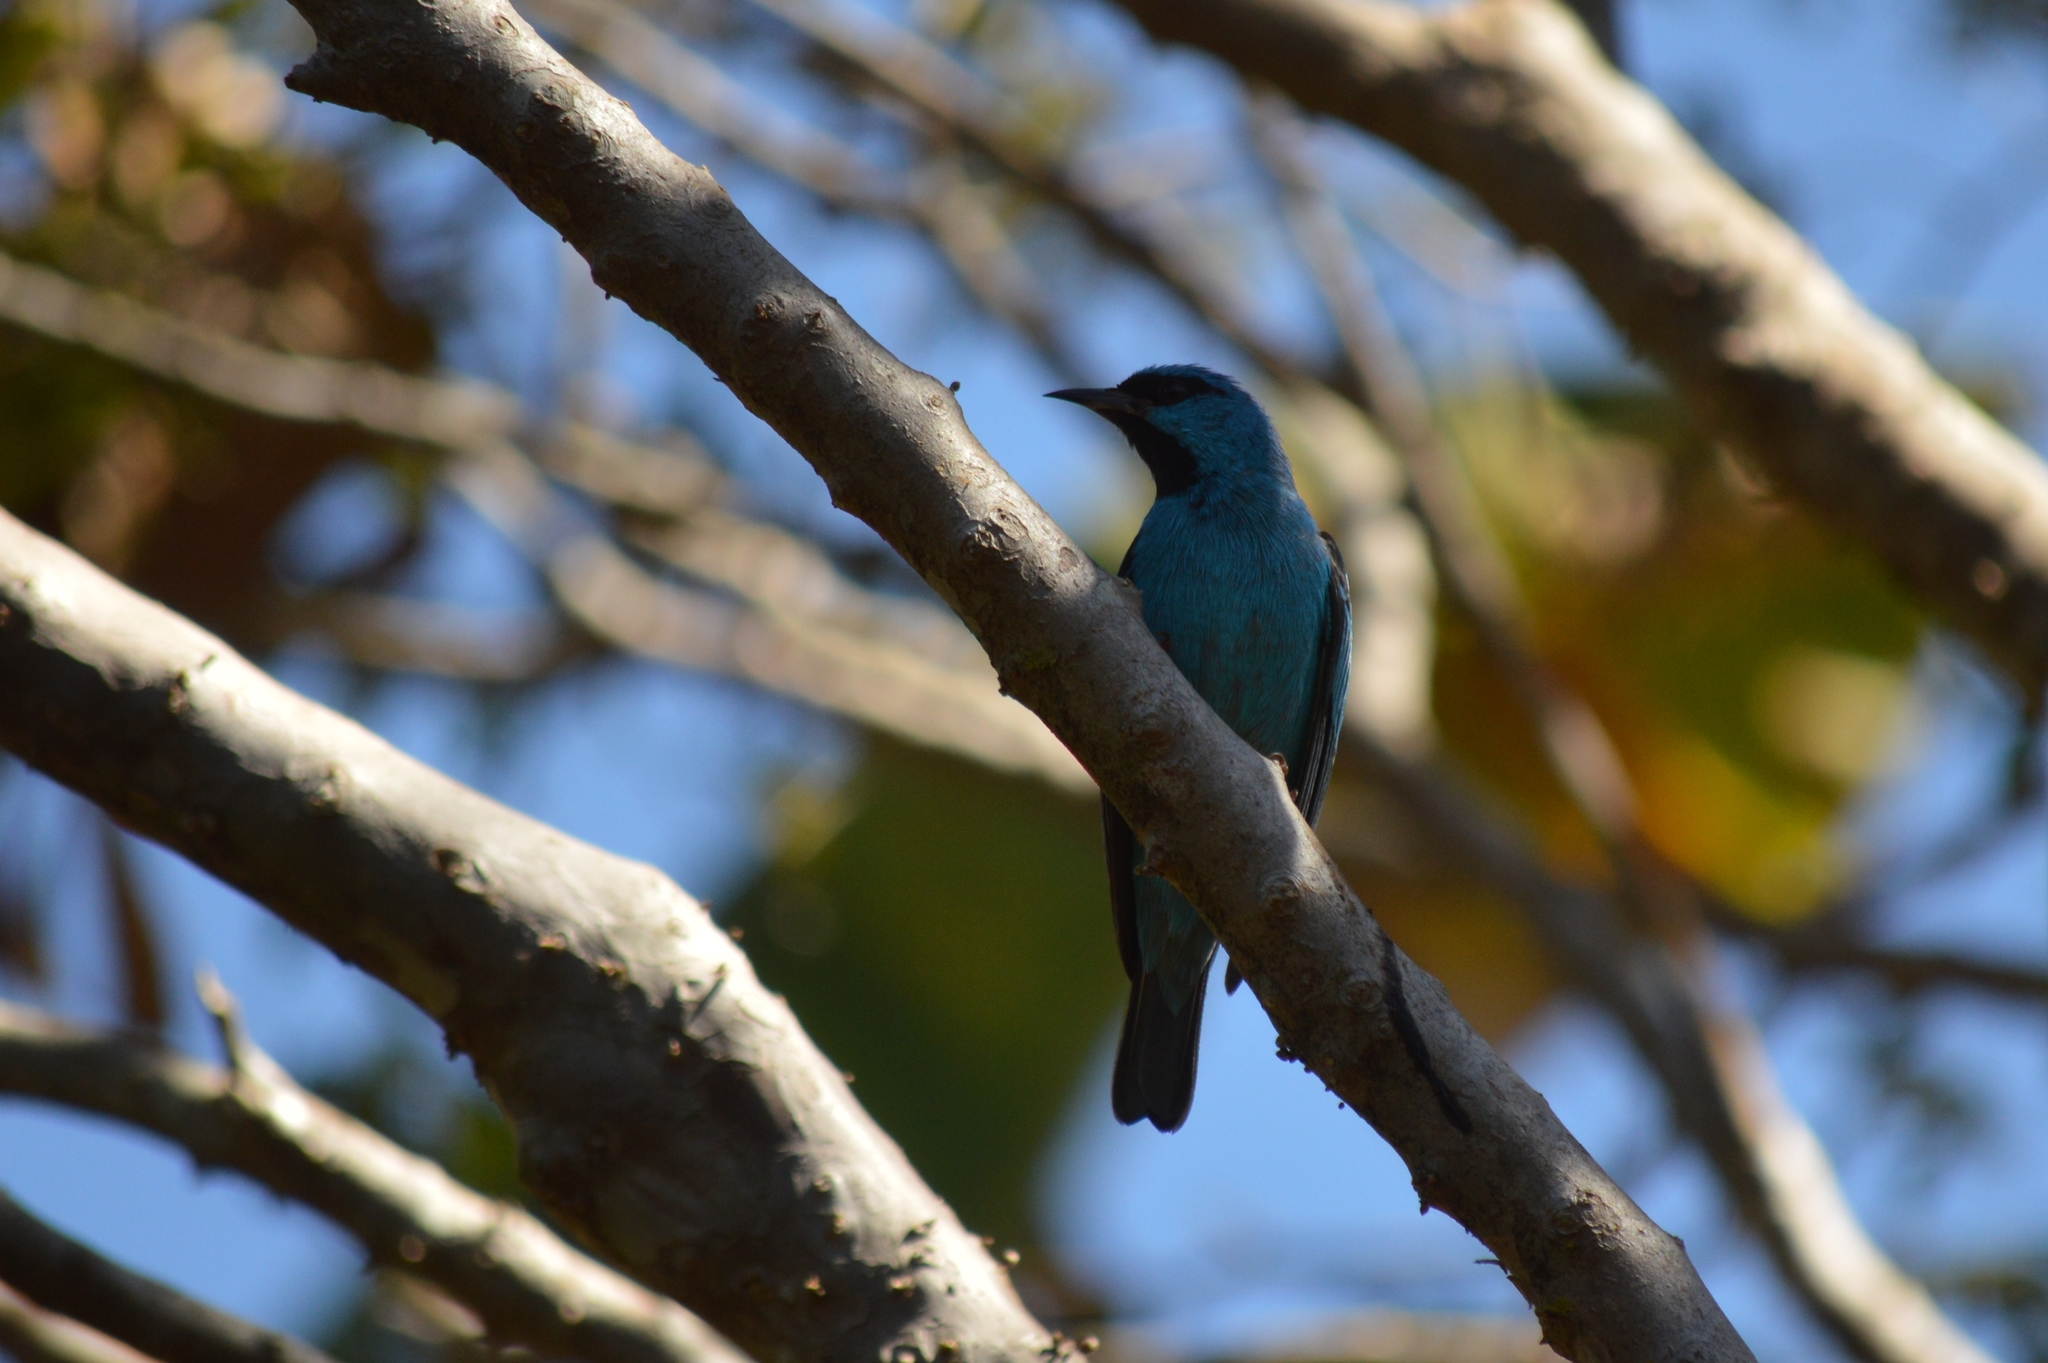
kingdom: Animalia
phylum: Chordata
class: Aves
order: Passeriformes
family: Thraupidae
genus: Dacnis
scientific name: Dacnis cayana
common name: Blue dacnis
